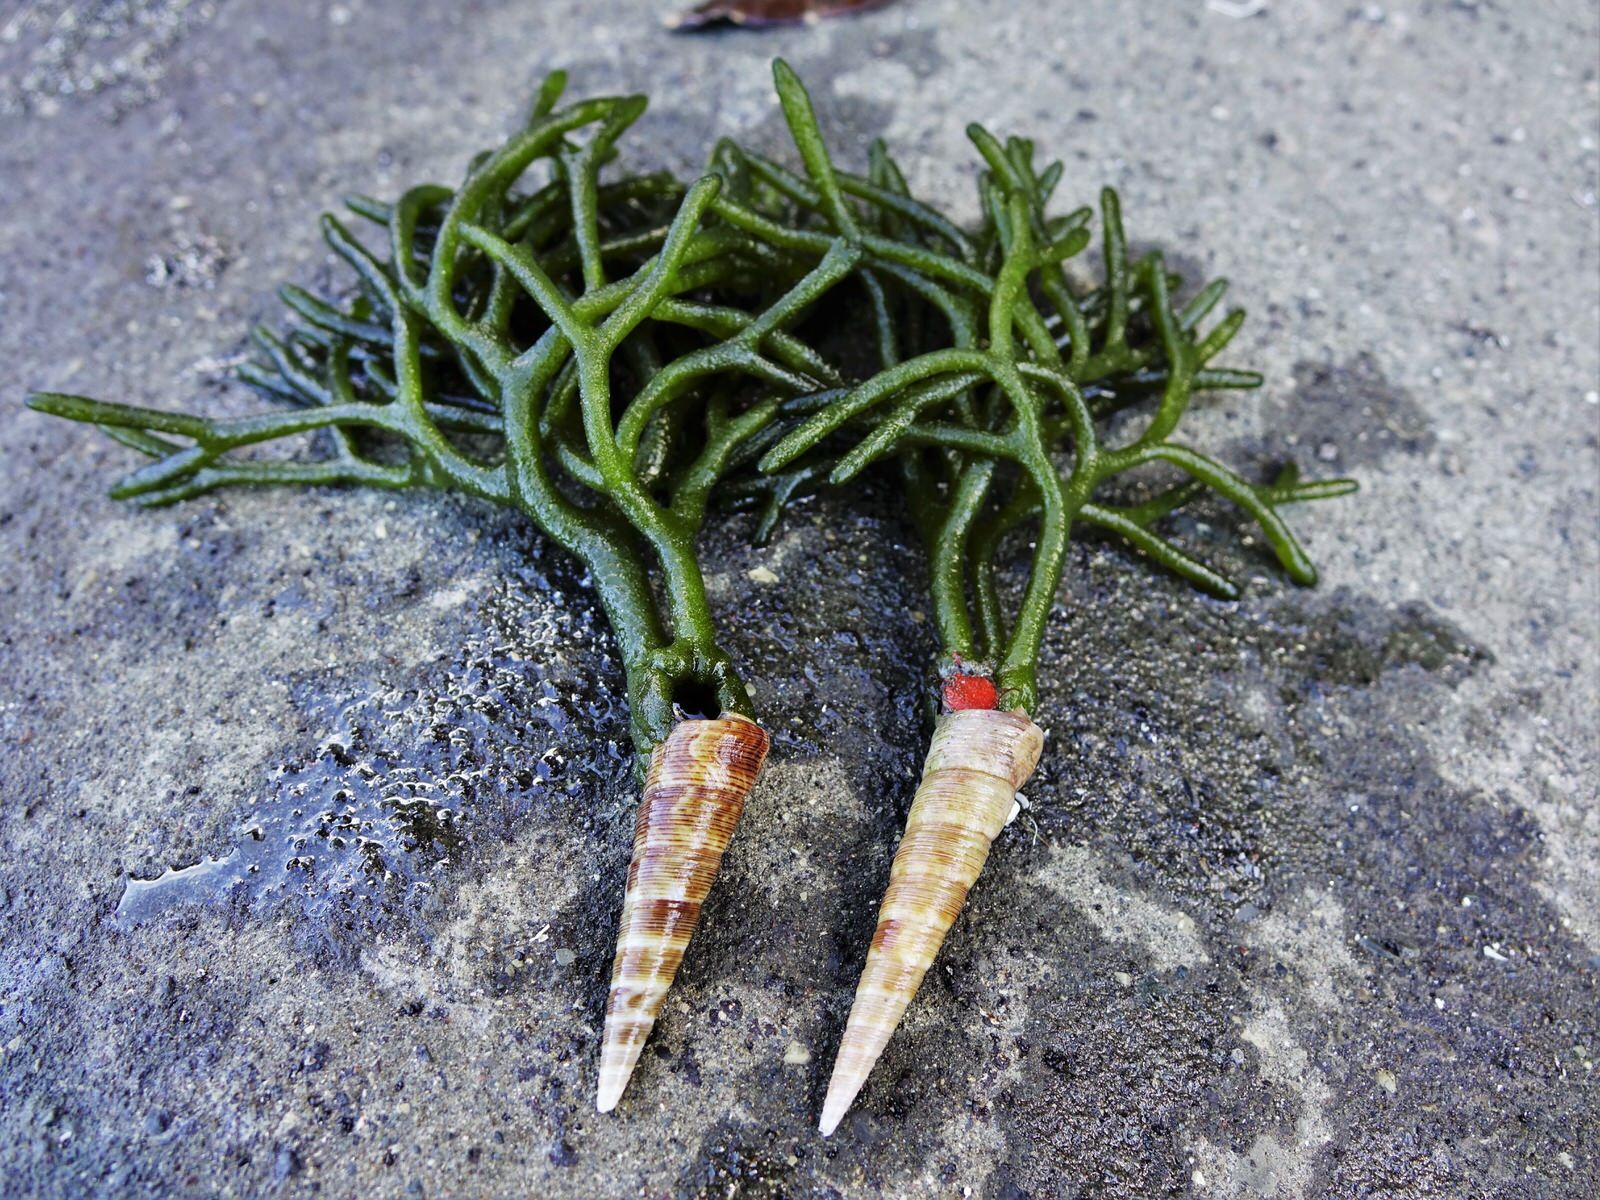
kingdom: Plantae
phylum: Chlorophyta
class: Ulvophyceae
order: Bryopsidales
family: Codiaceae
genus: Codium
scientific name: Codium fragile
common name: Dead man's fingers
